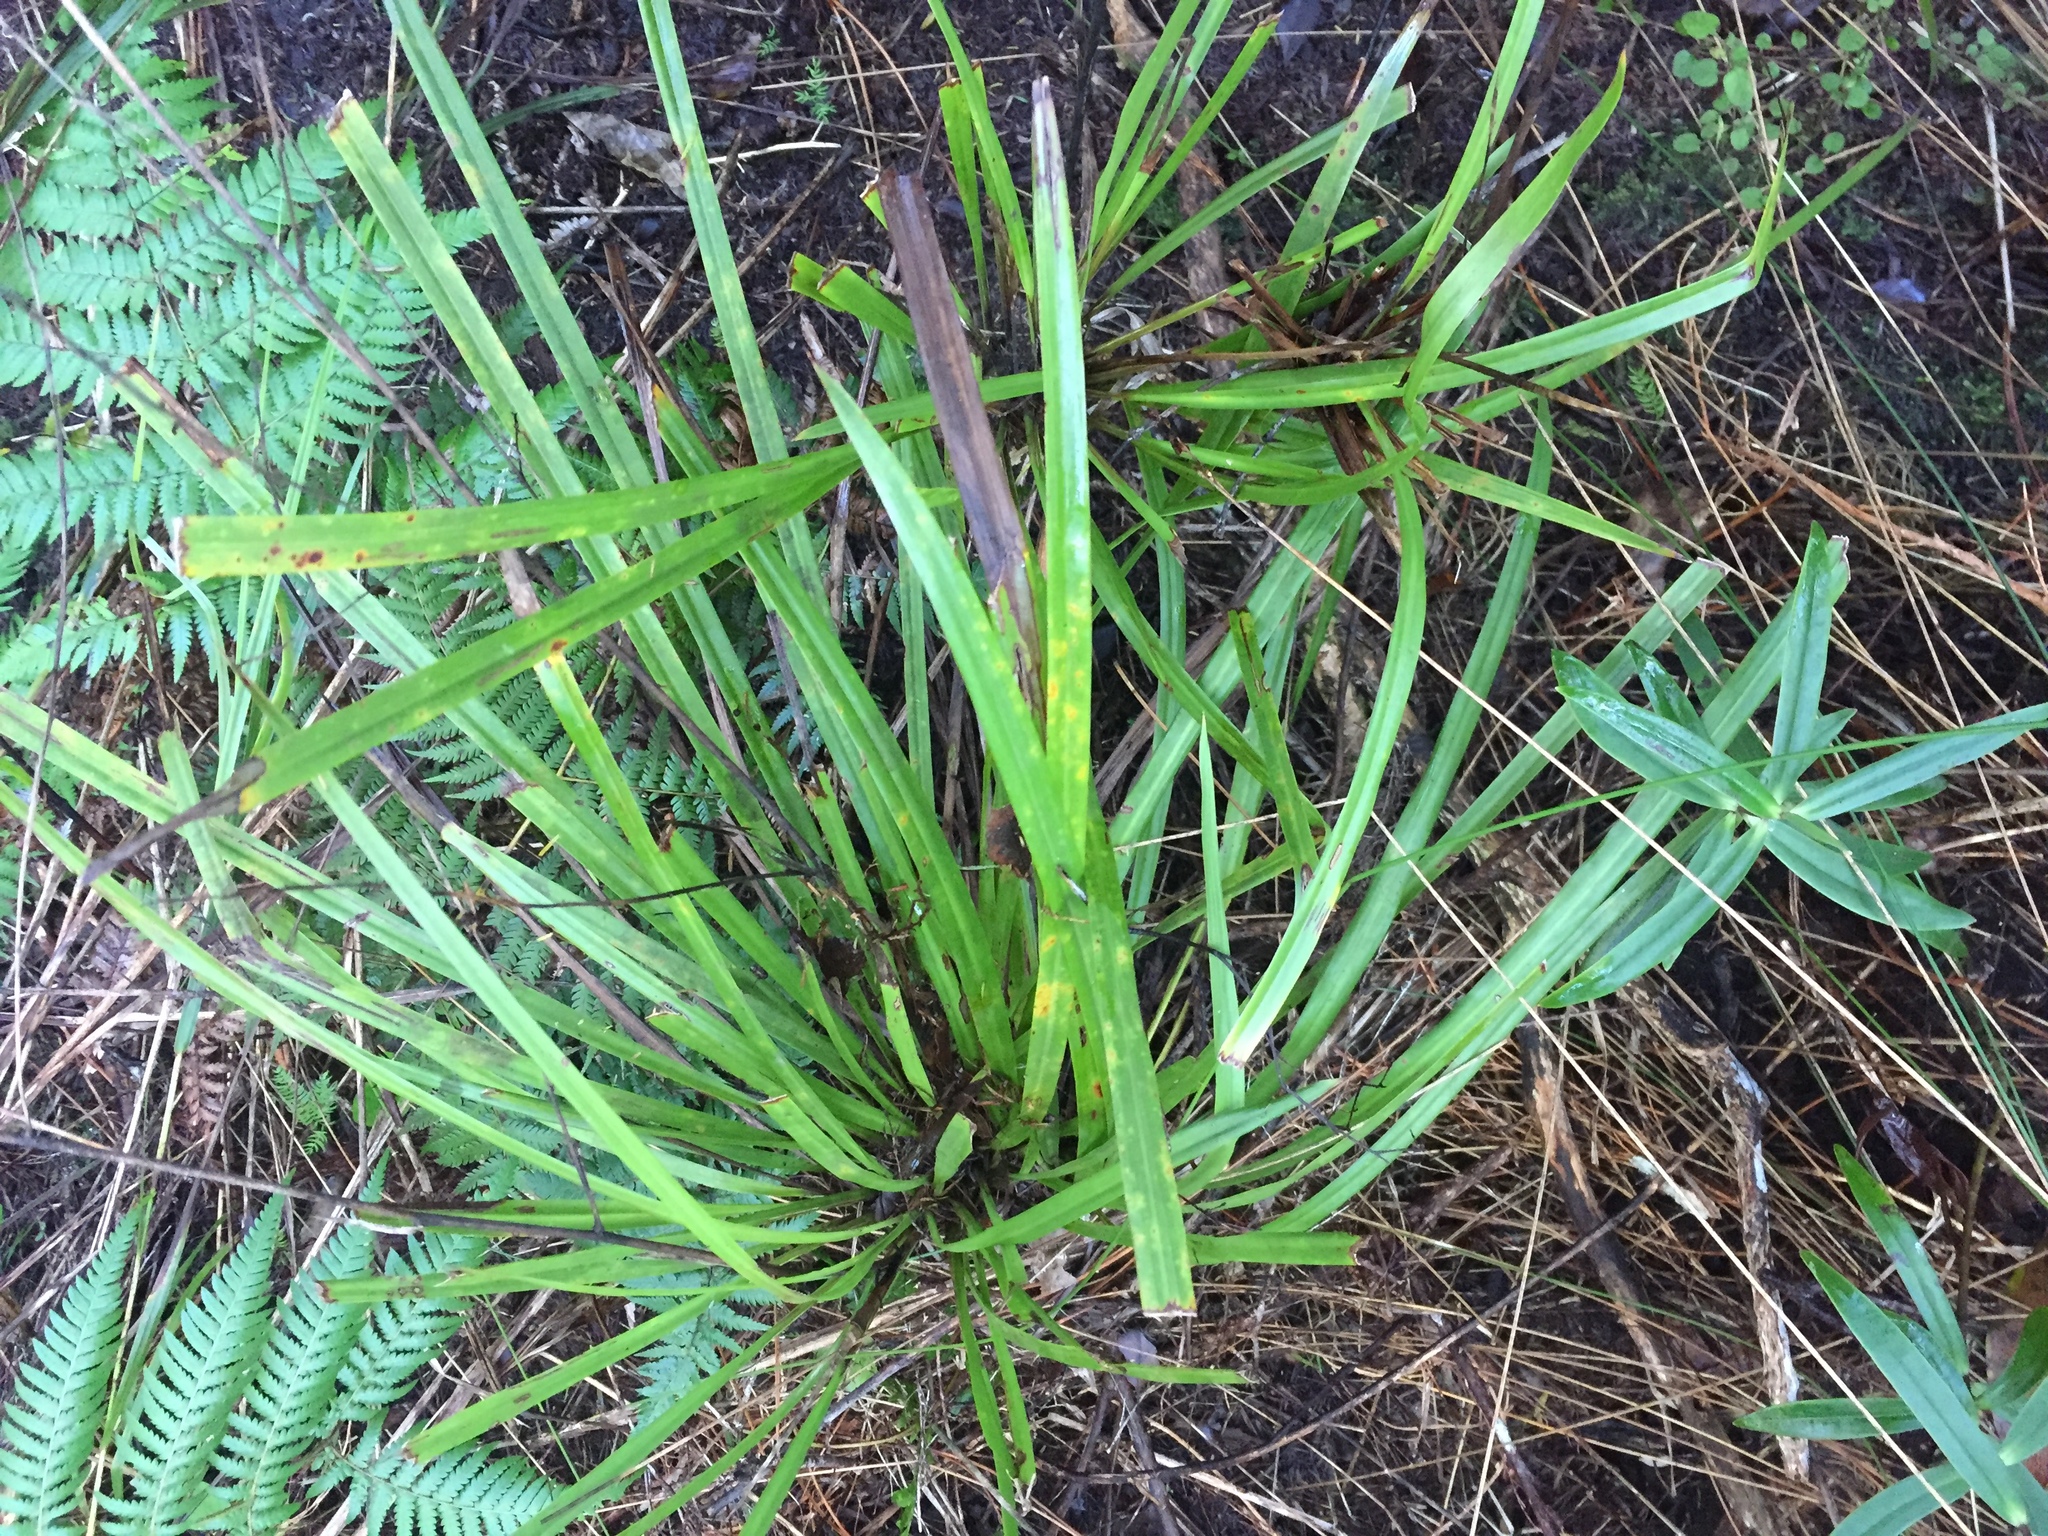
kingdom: Plantae
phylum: Tracheophyta
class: Liliopsida
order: Asparagales
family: Asparagaceae
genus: Cordyline
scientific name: Cordyline pumilio
